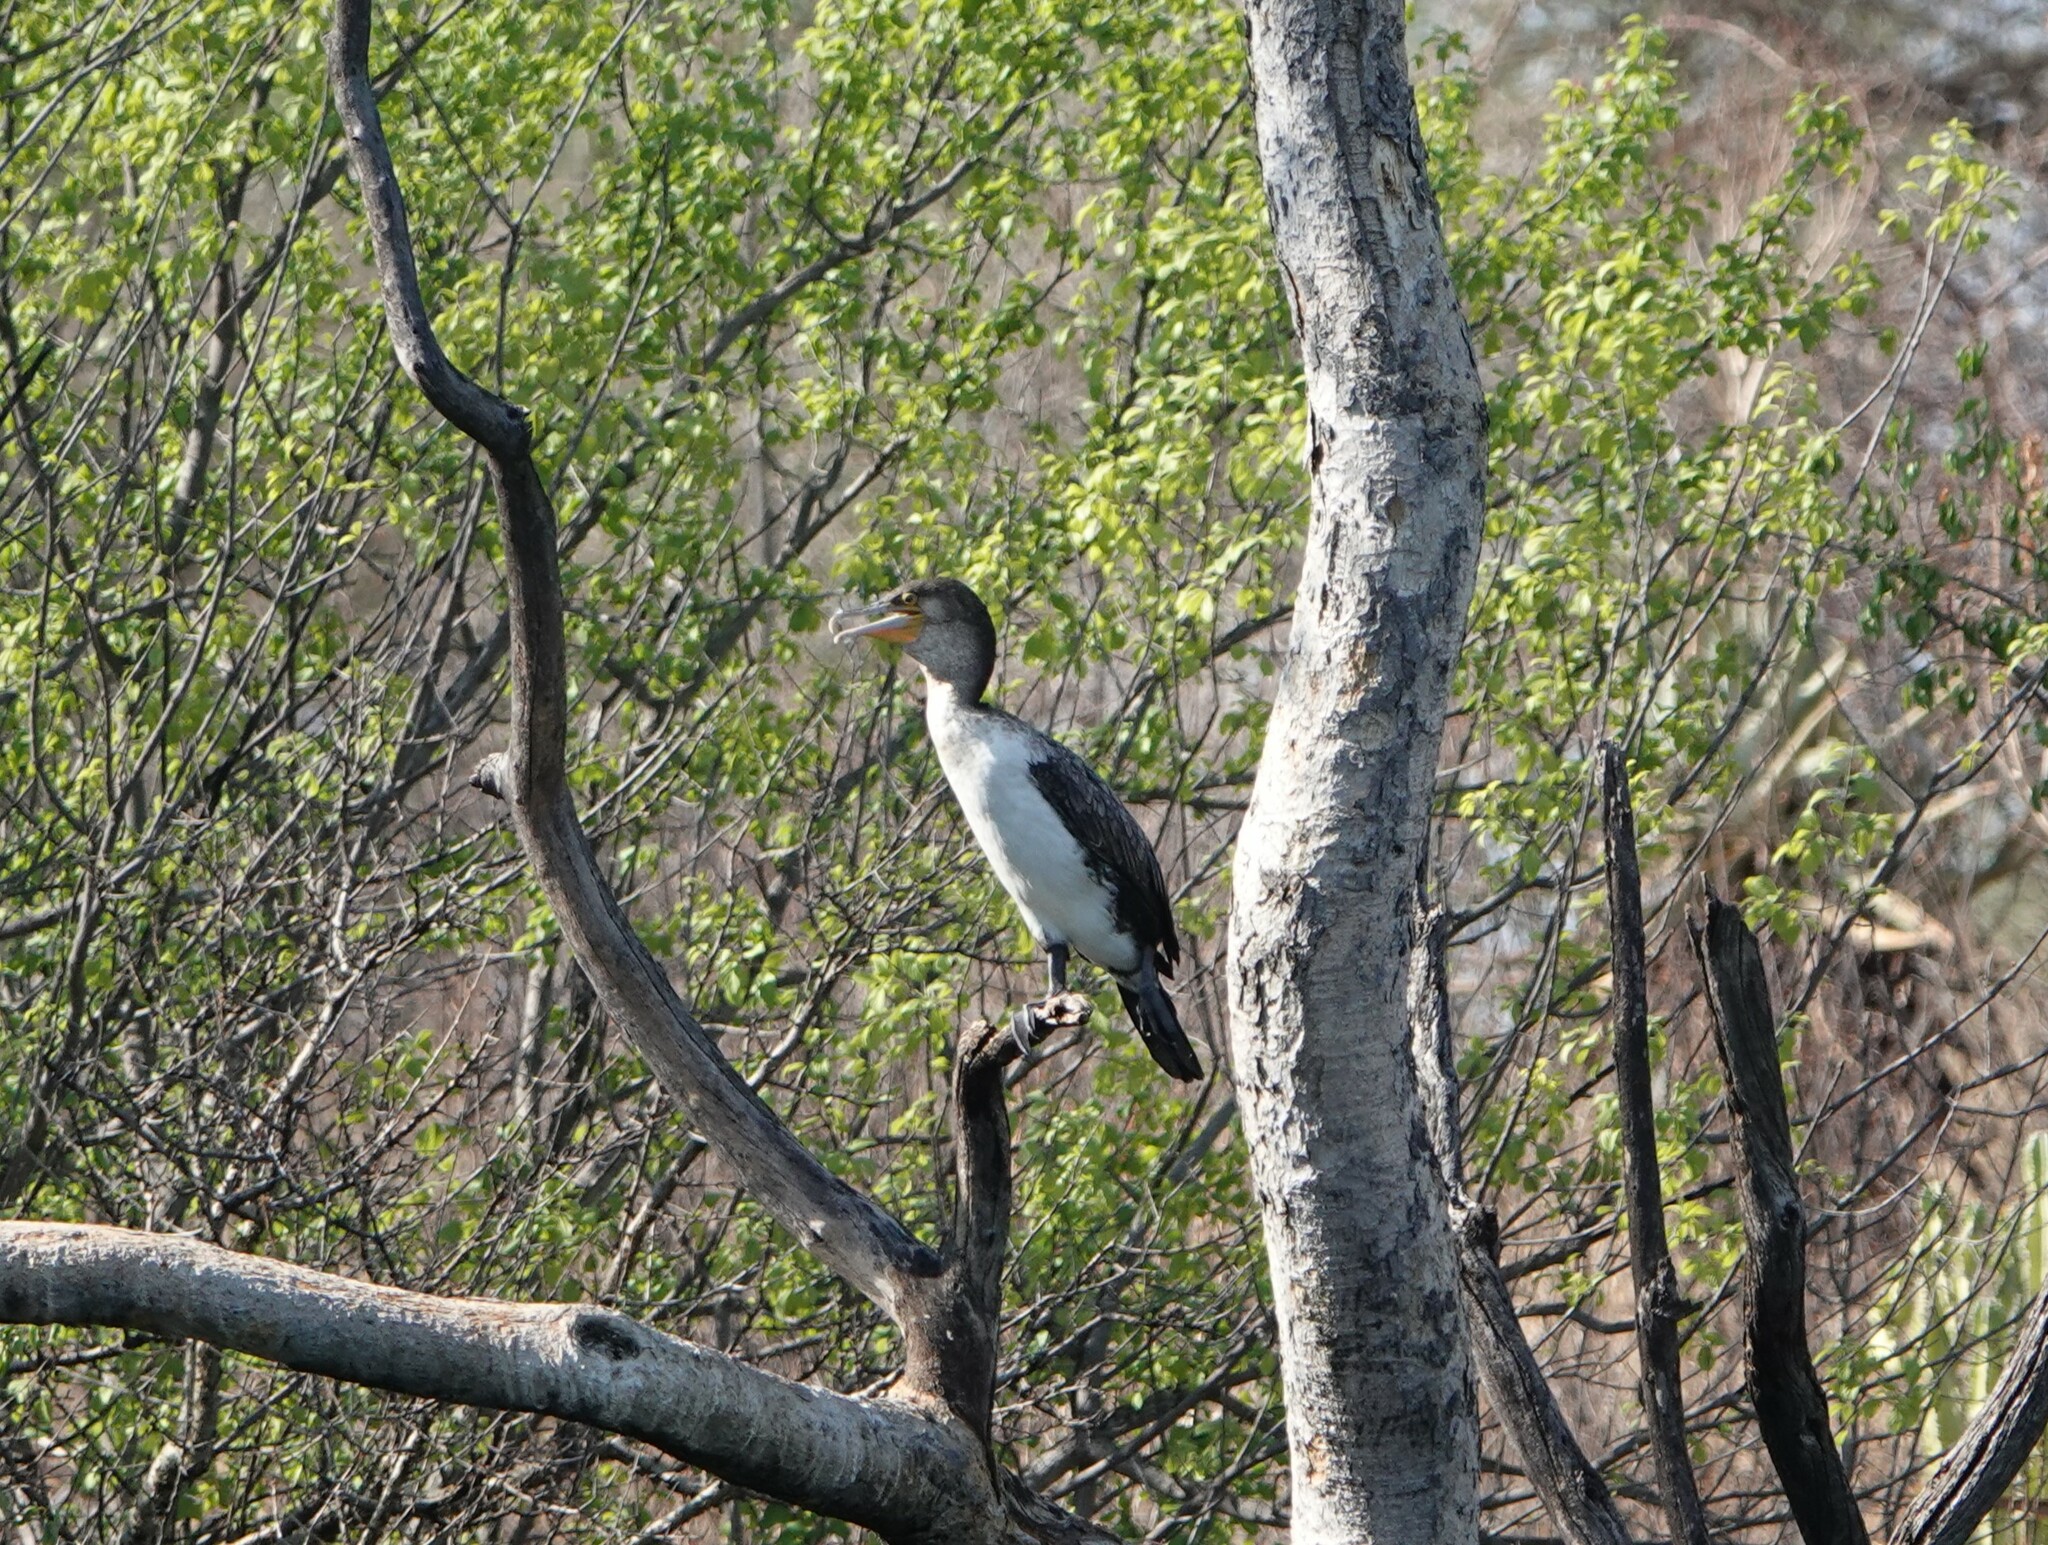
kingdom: Animalia
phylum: Chordata
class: Aves
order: Suliformes
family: Phalacrocoracidae
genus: Phalacrocorax
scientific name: Phalacrocorax carbo
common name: Great cormorant
